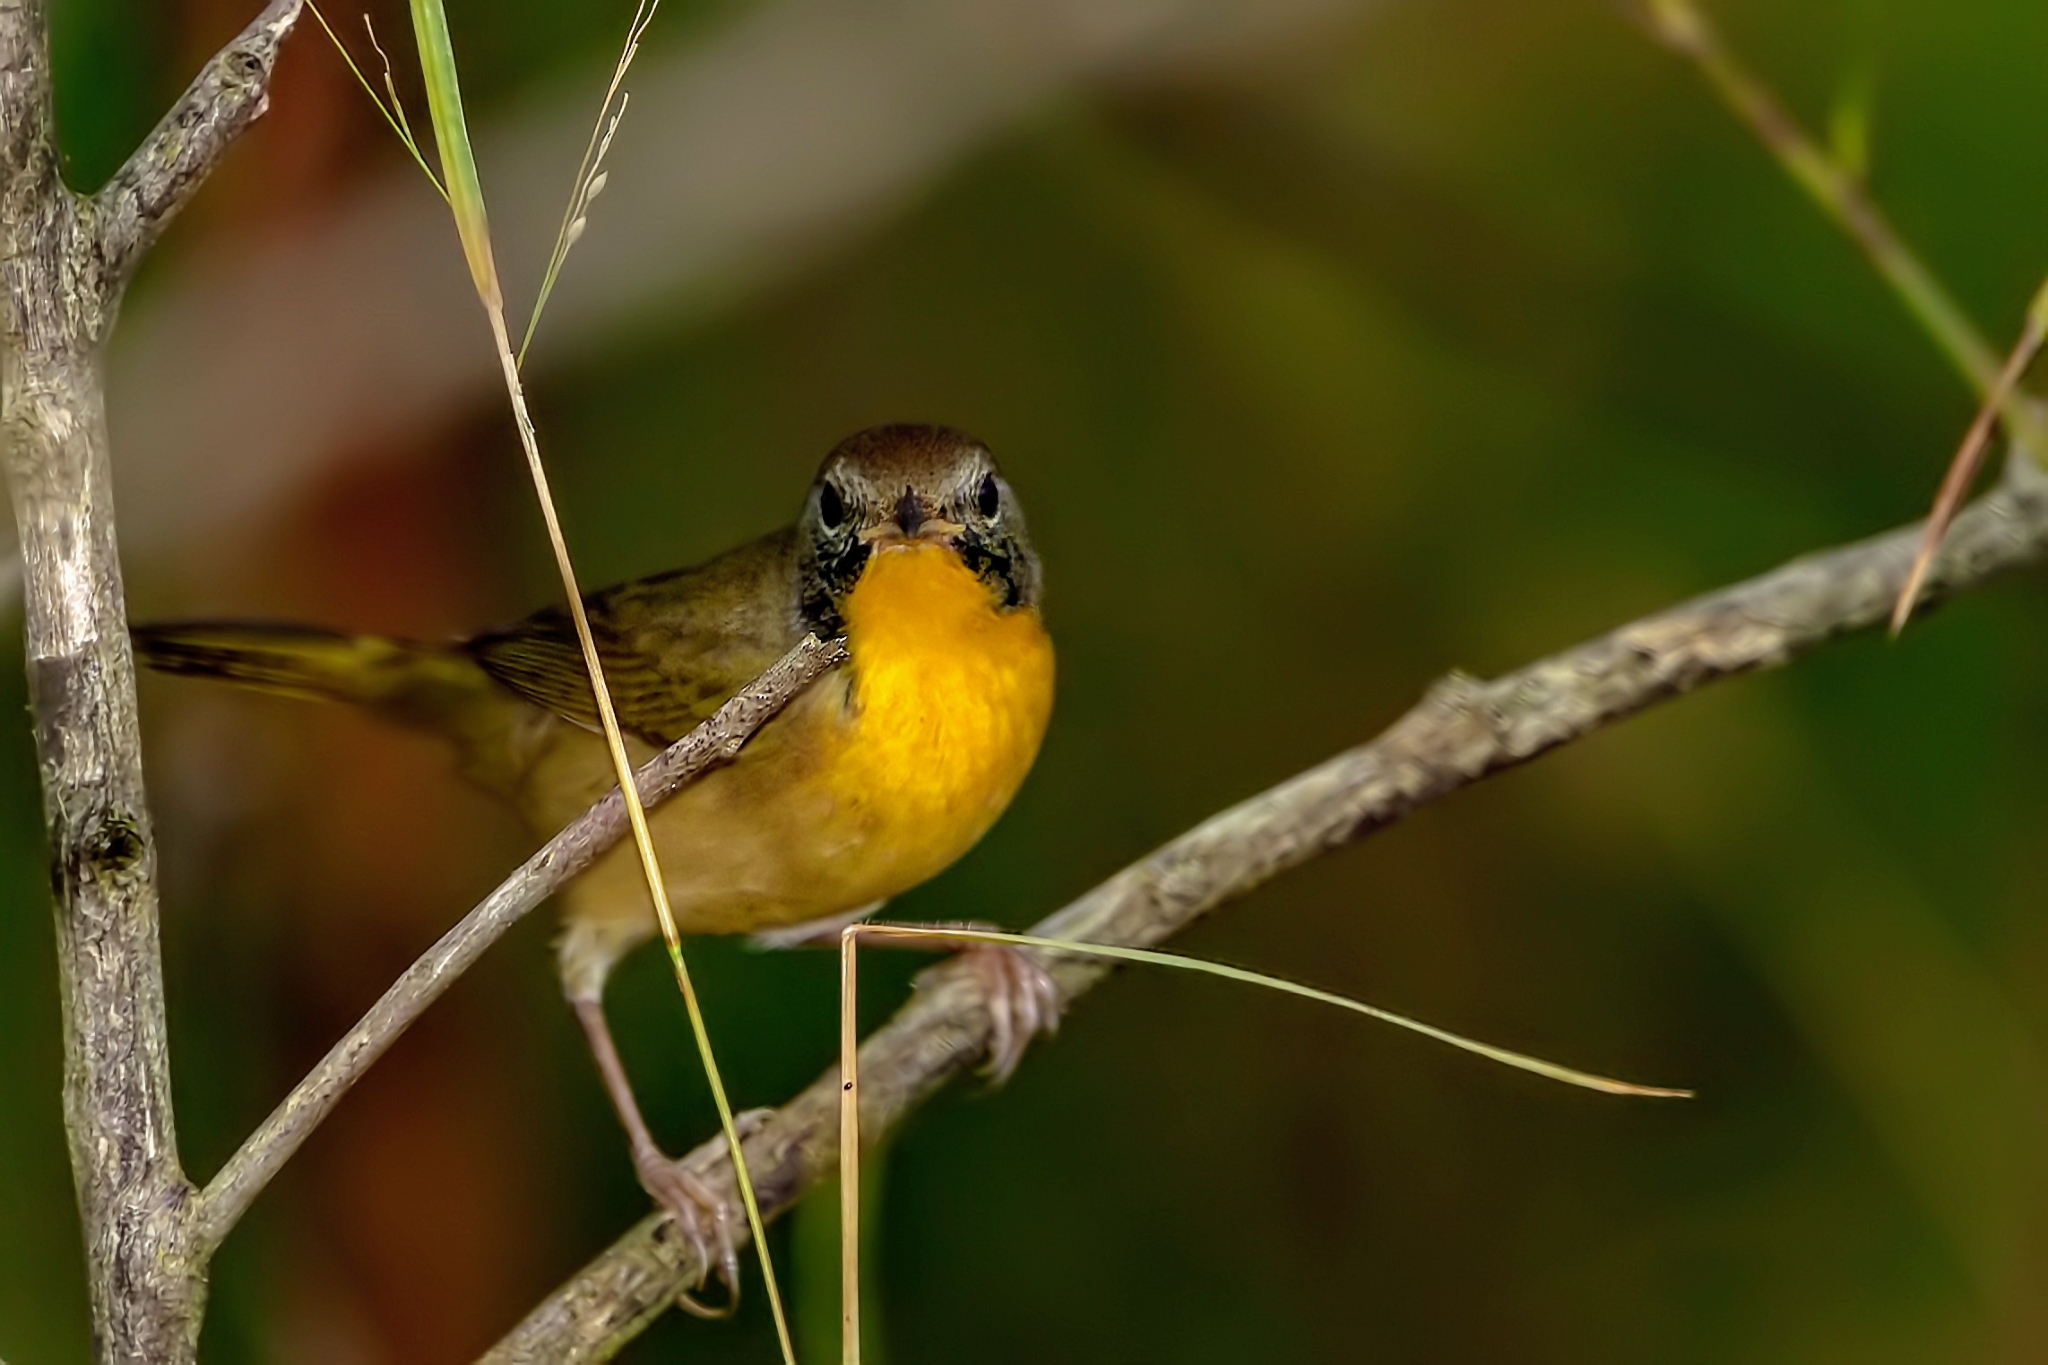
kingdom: Animalia
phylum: Chordata
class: Aves
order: Passeriformes
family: Parulidae
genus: Geothlypis
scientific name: Geothlypis trichas
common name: Common yellowthroat
